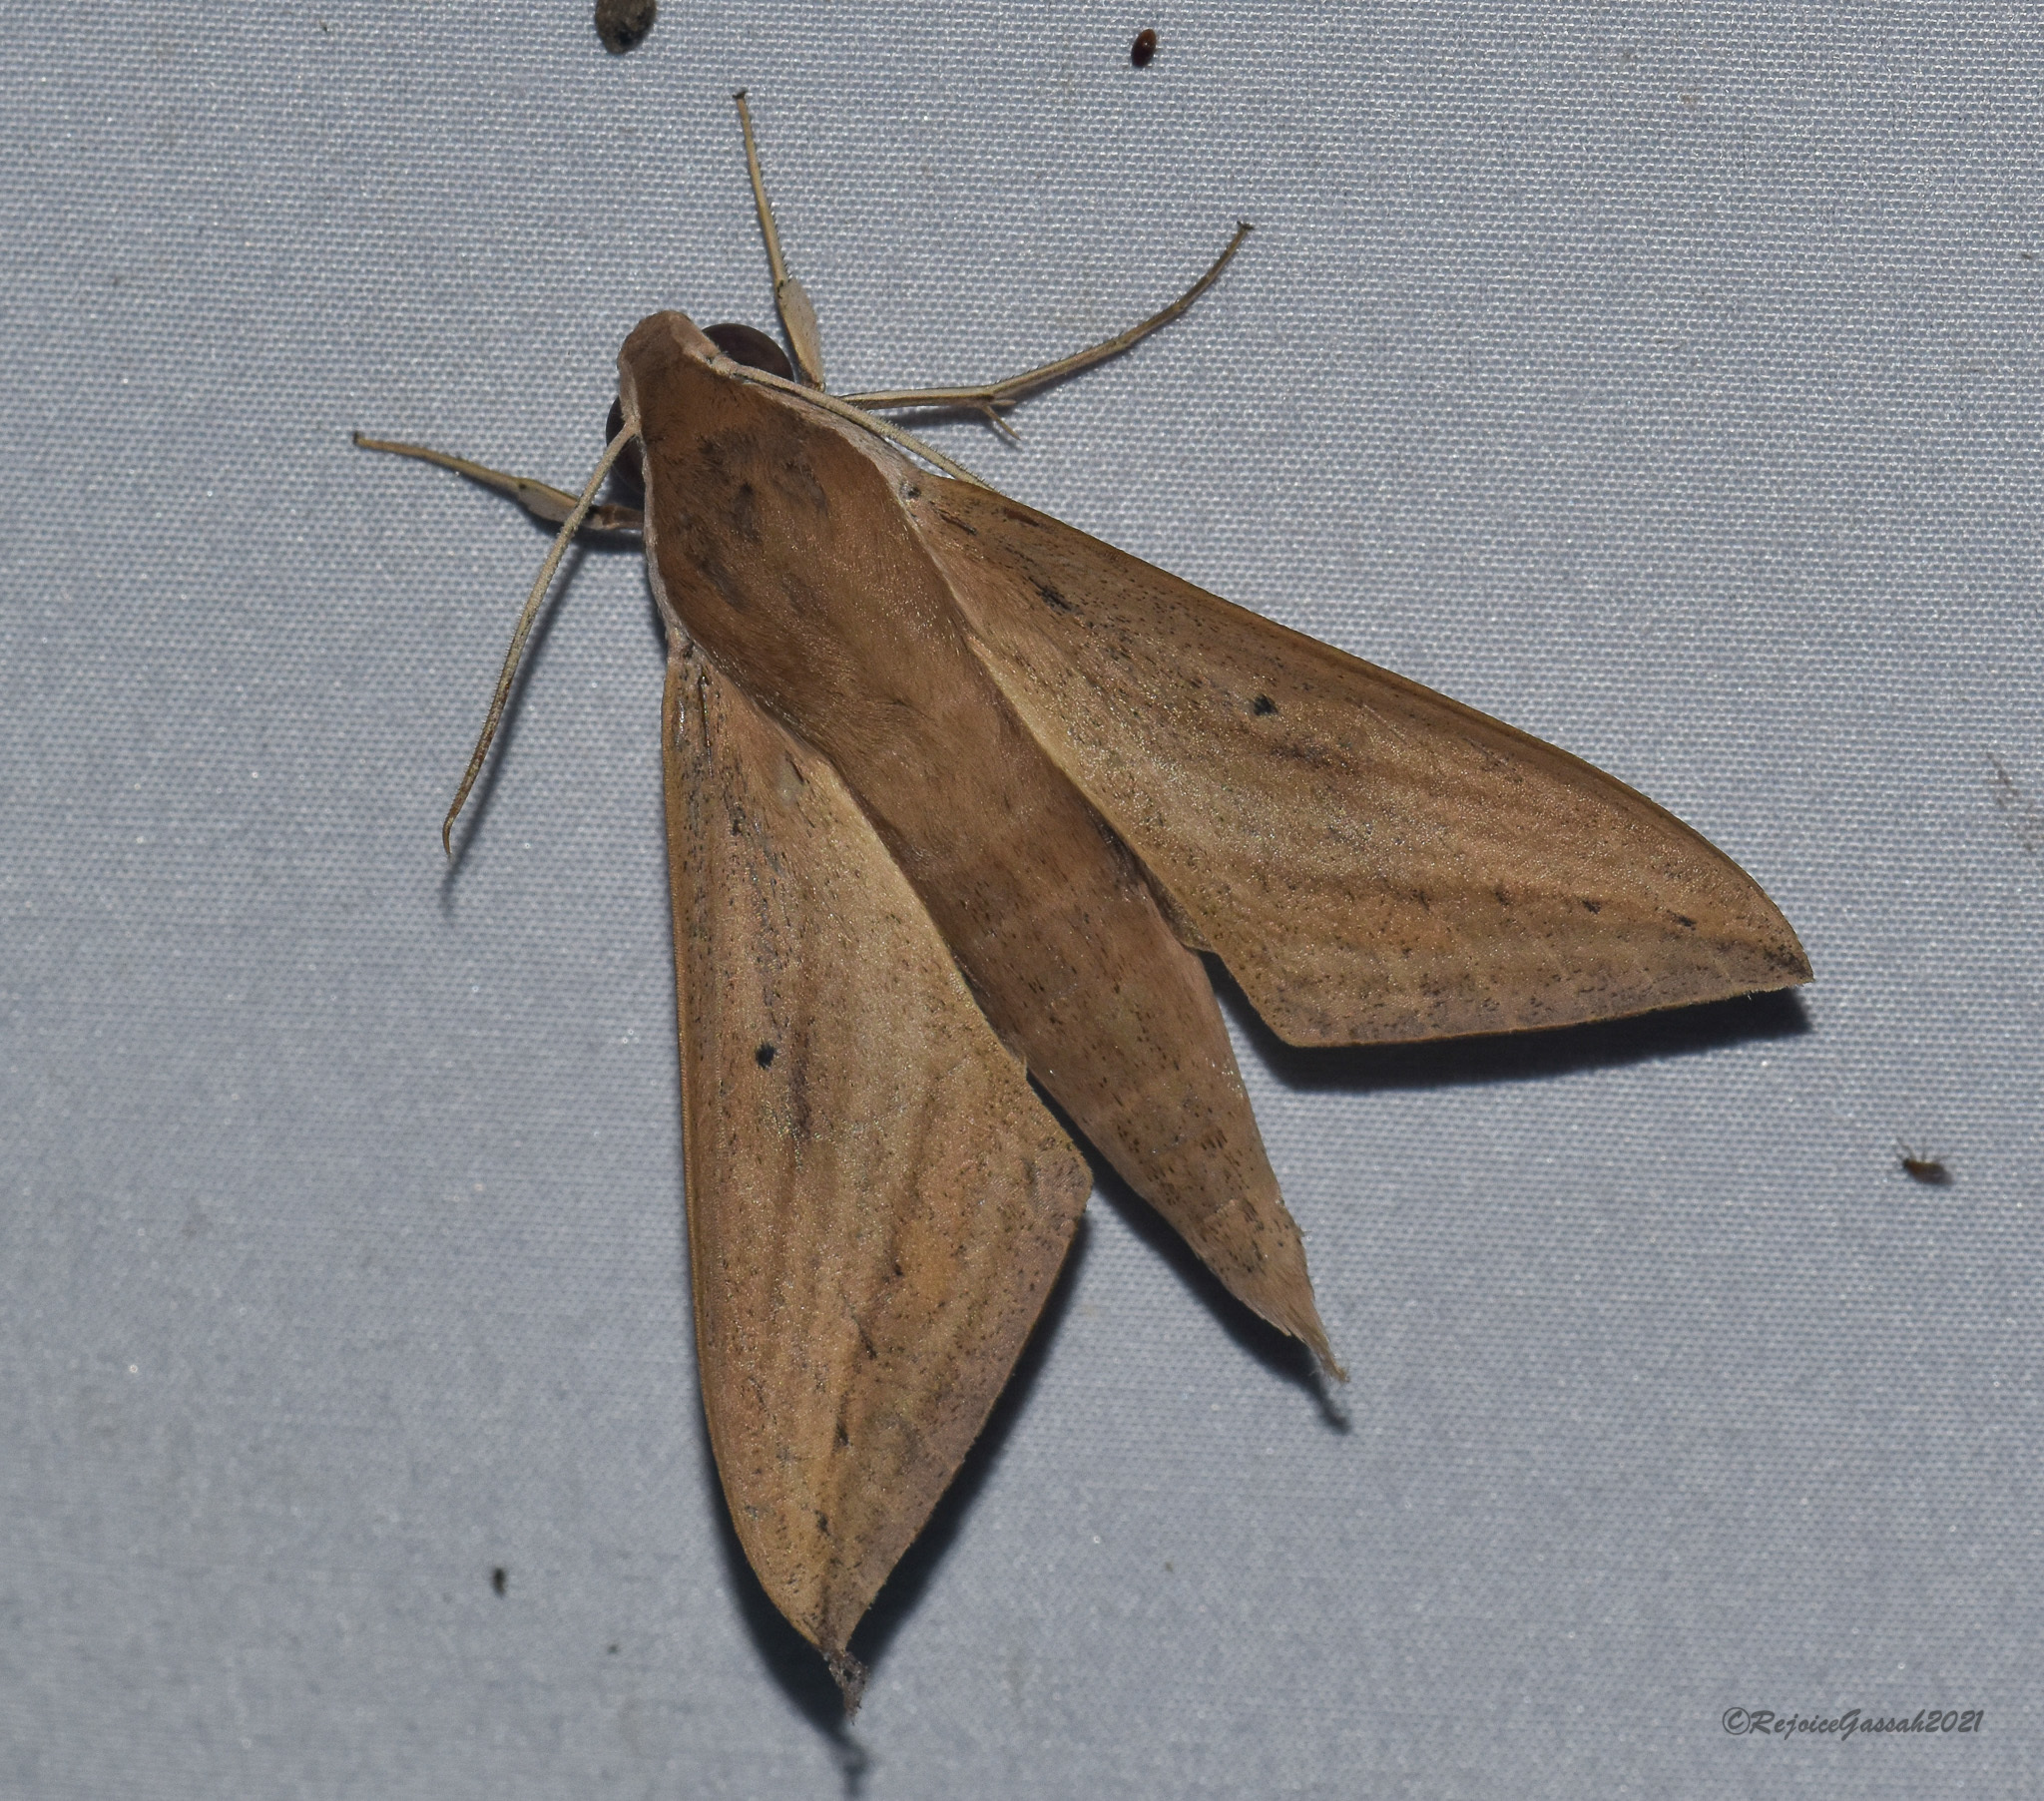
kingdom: Animalia
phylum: Arthropoda
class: Insecta
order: Lepidoptera
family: Sphingidae
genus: Theretra
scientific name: Theretra rhesus
